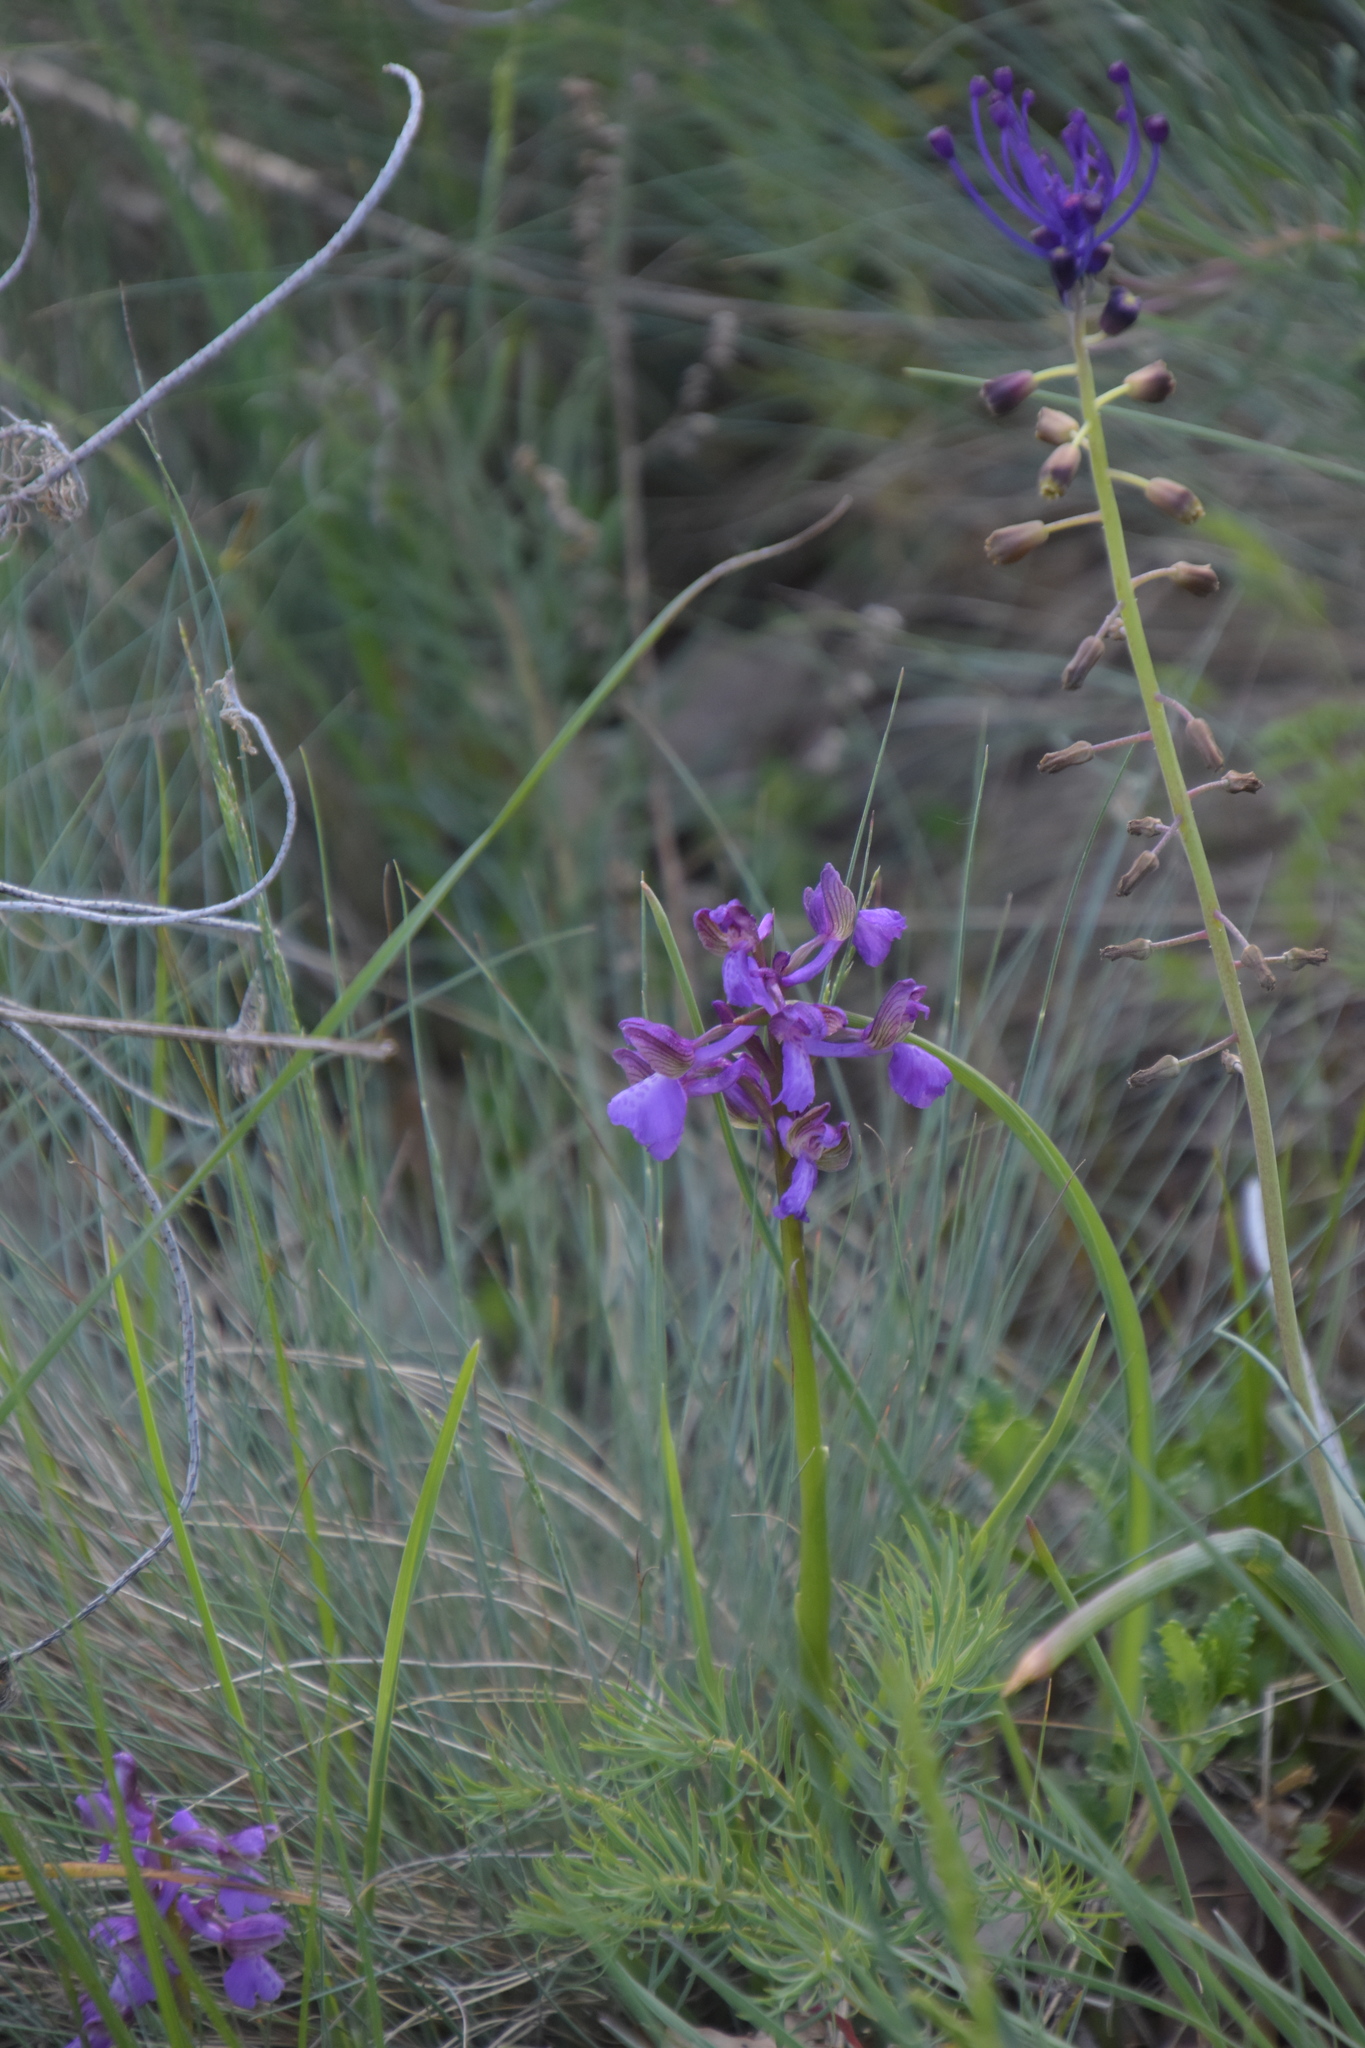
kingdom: Plantae
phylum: Tracheophyta
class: Liliopsida
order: Asparagales
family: Orchidaceae
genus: Anacamptis
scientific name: Anacamptis morio
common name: Green-winged orchid
